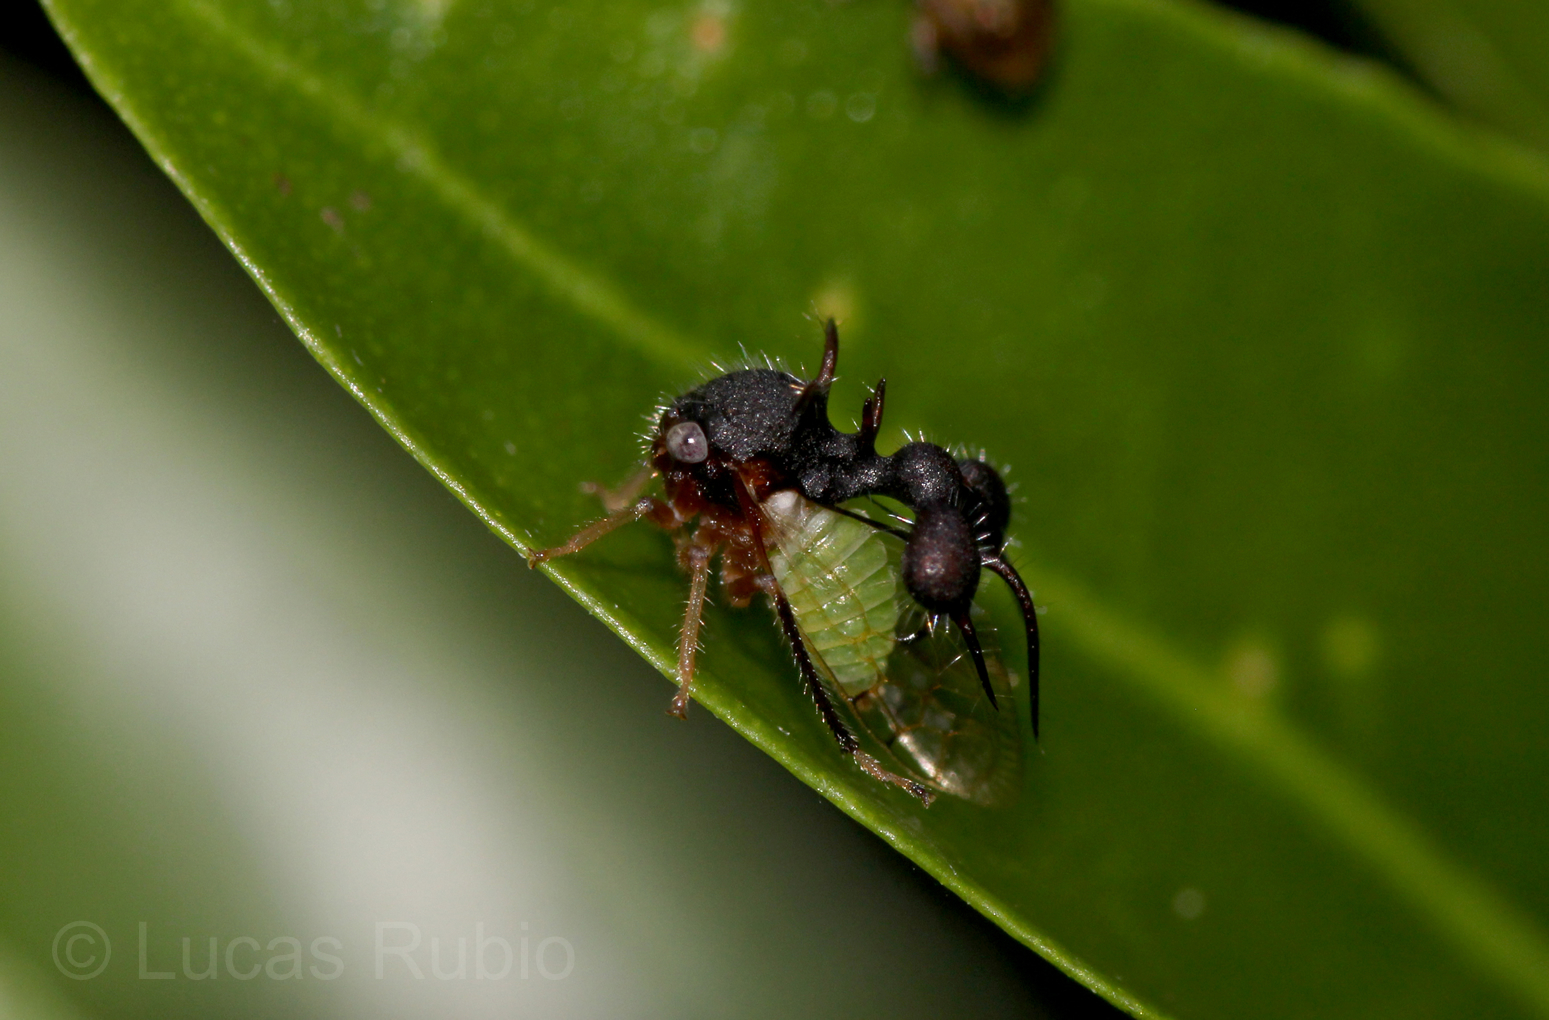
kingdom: Animalia
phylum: Arthropoda
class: Insecta
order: Hemiptera
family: Membracidae
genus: Cyphonia
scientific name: Cyphonia clavata
